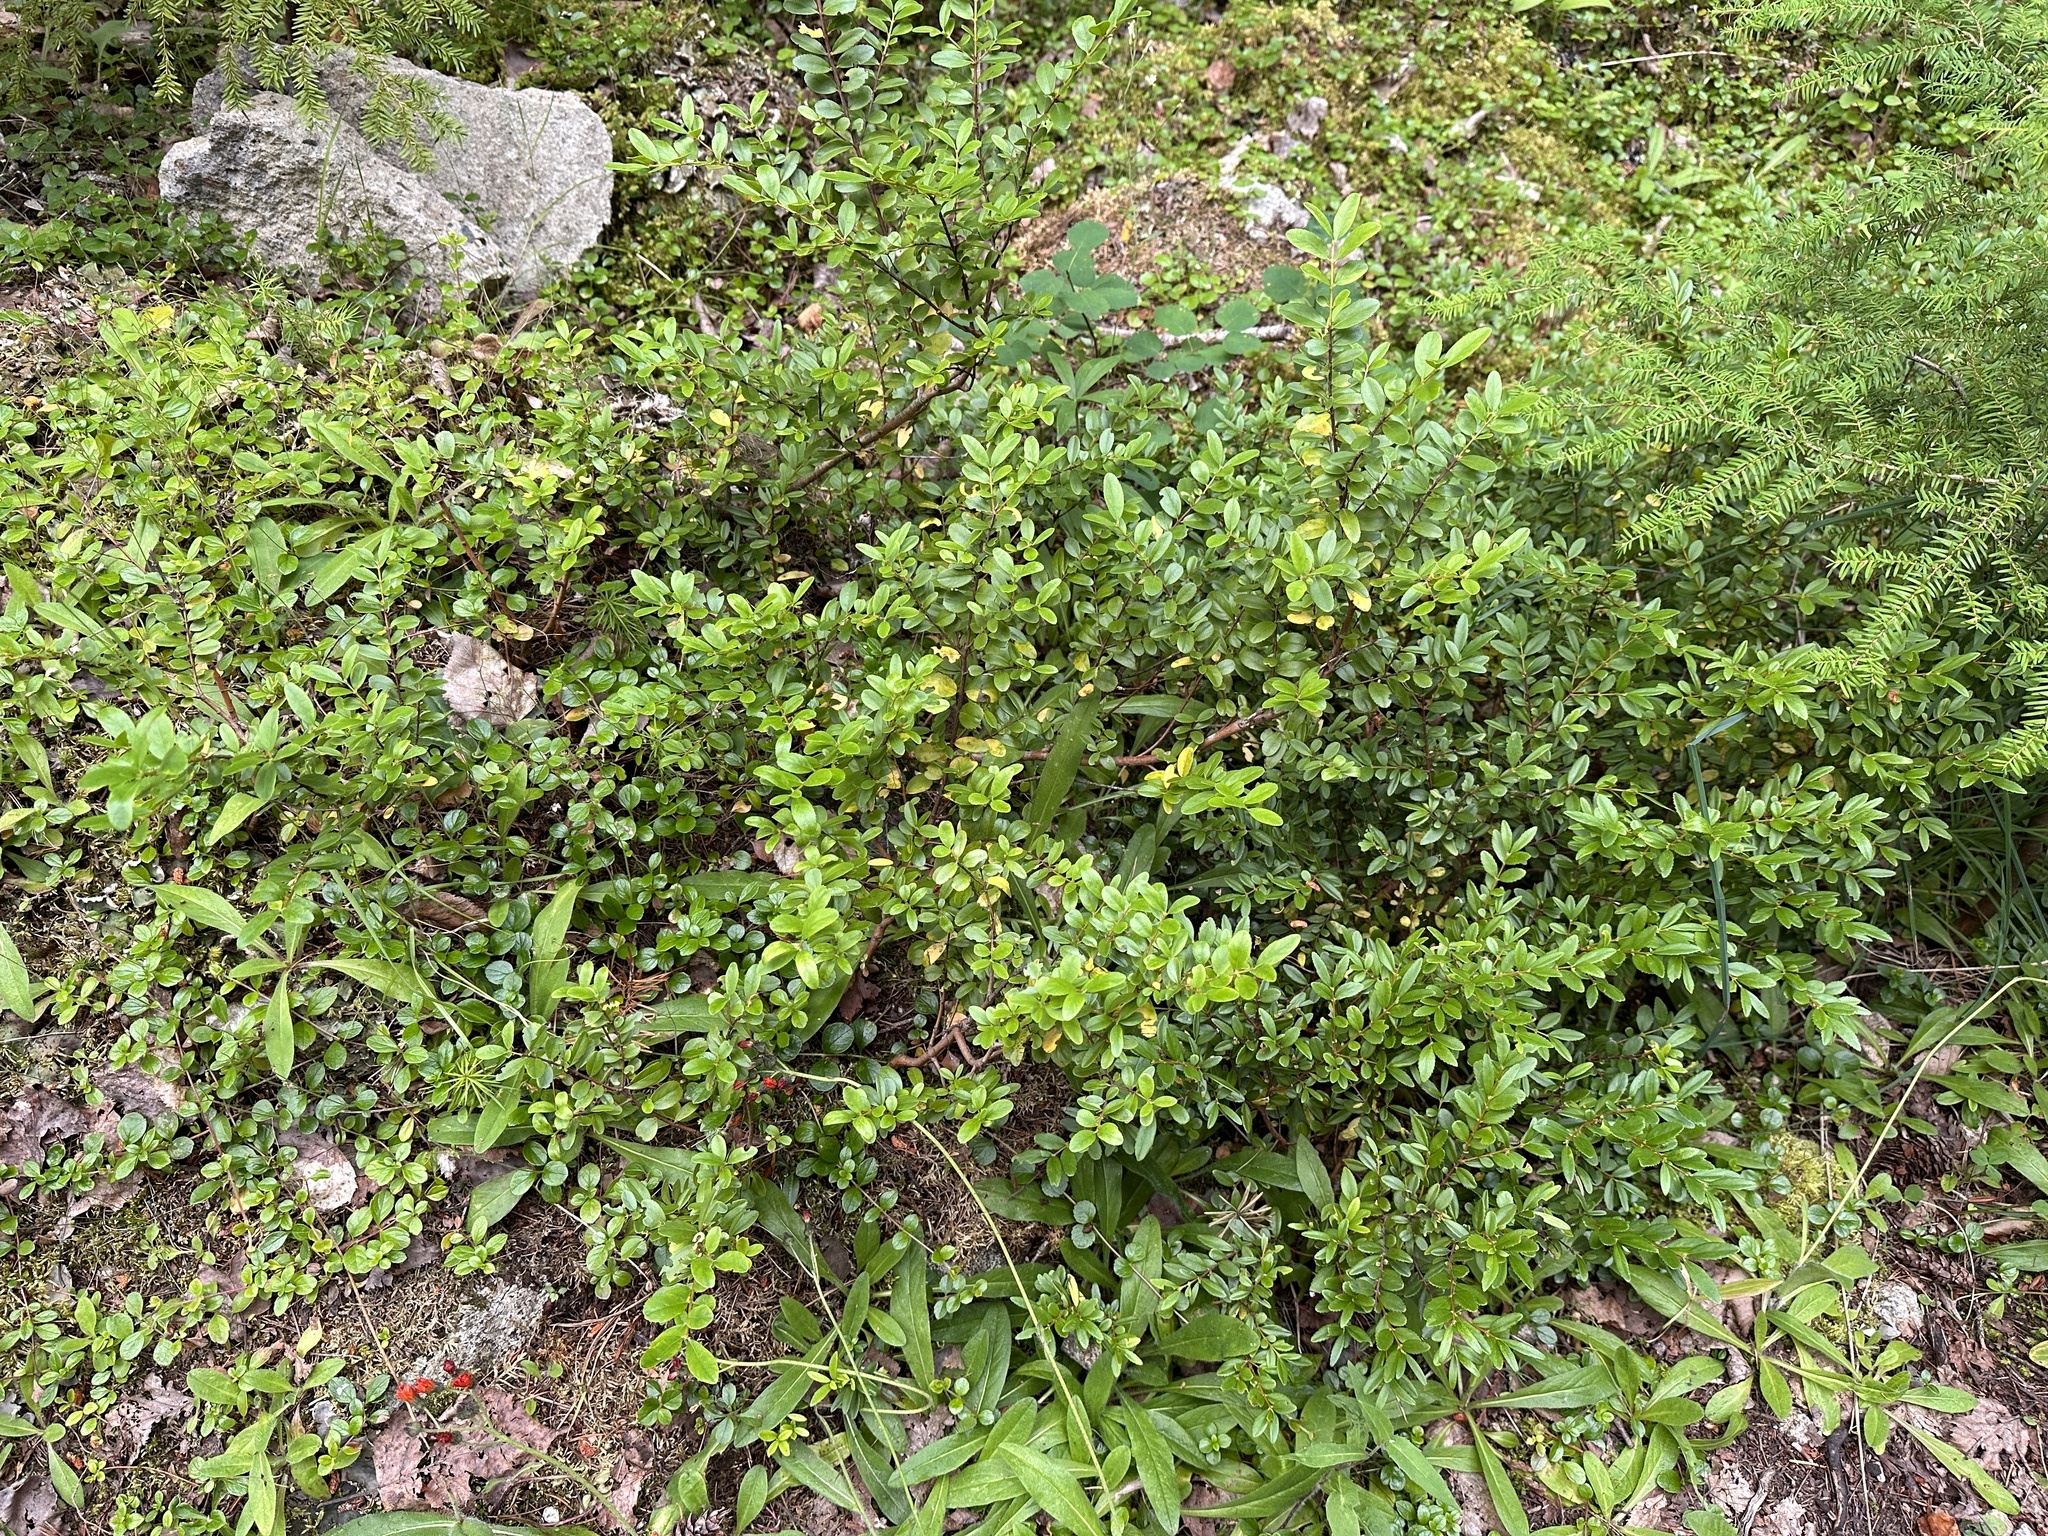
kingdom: Plantae
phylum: Tracheophyta
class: Magnoliopsida
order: Celastrales
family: Celastraceae
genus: Paxistima
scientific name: Paxistima myrsinites
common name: Mountain-lover
